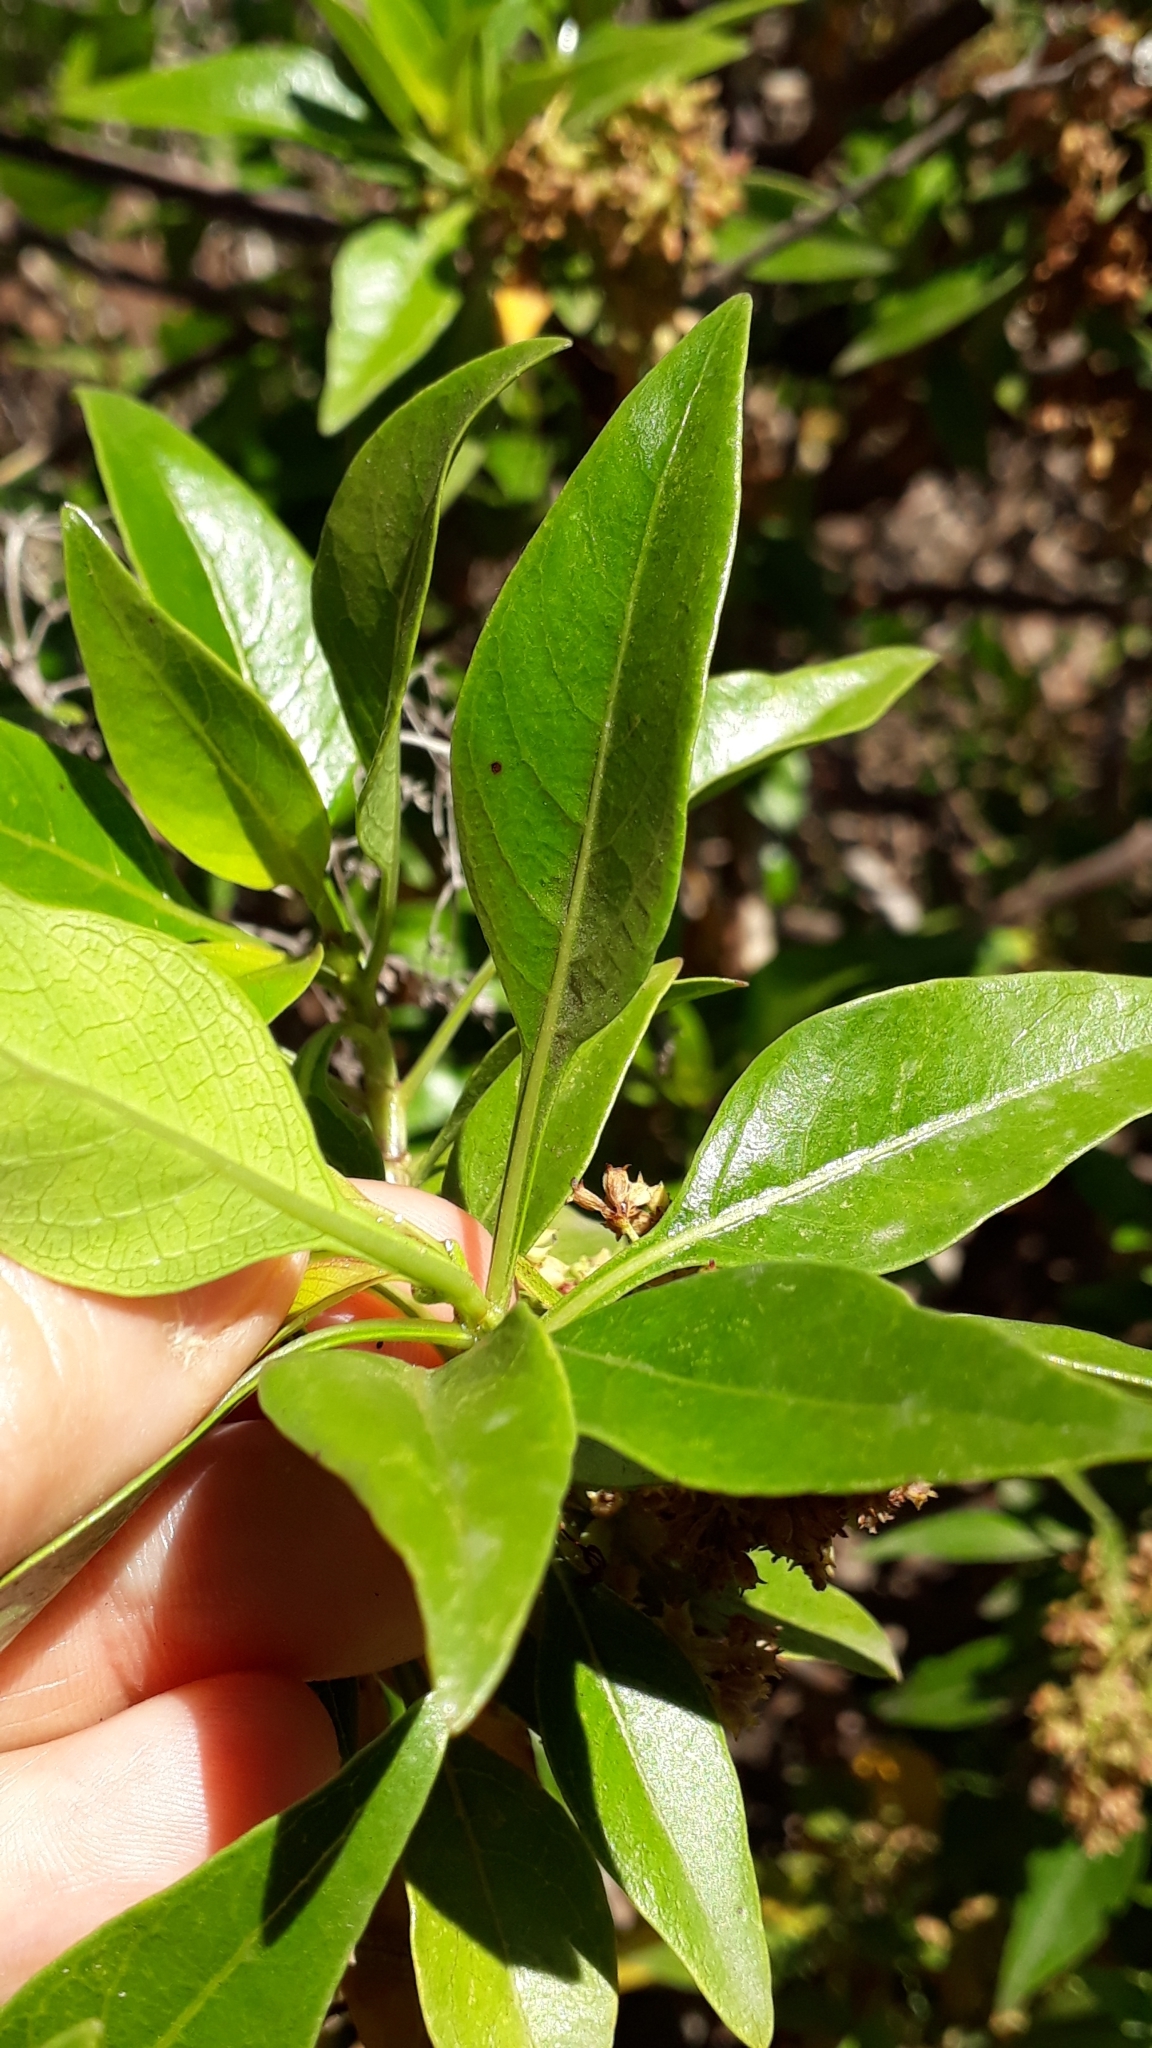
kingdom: Plantae
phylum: Tracheophyta
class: Magnoliopsida
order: Gentianales
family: Rubiaceae
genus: Phyllis
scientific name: Phyllis viscosa
